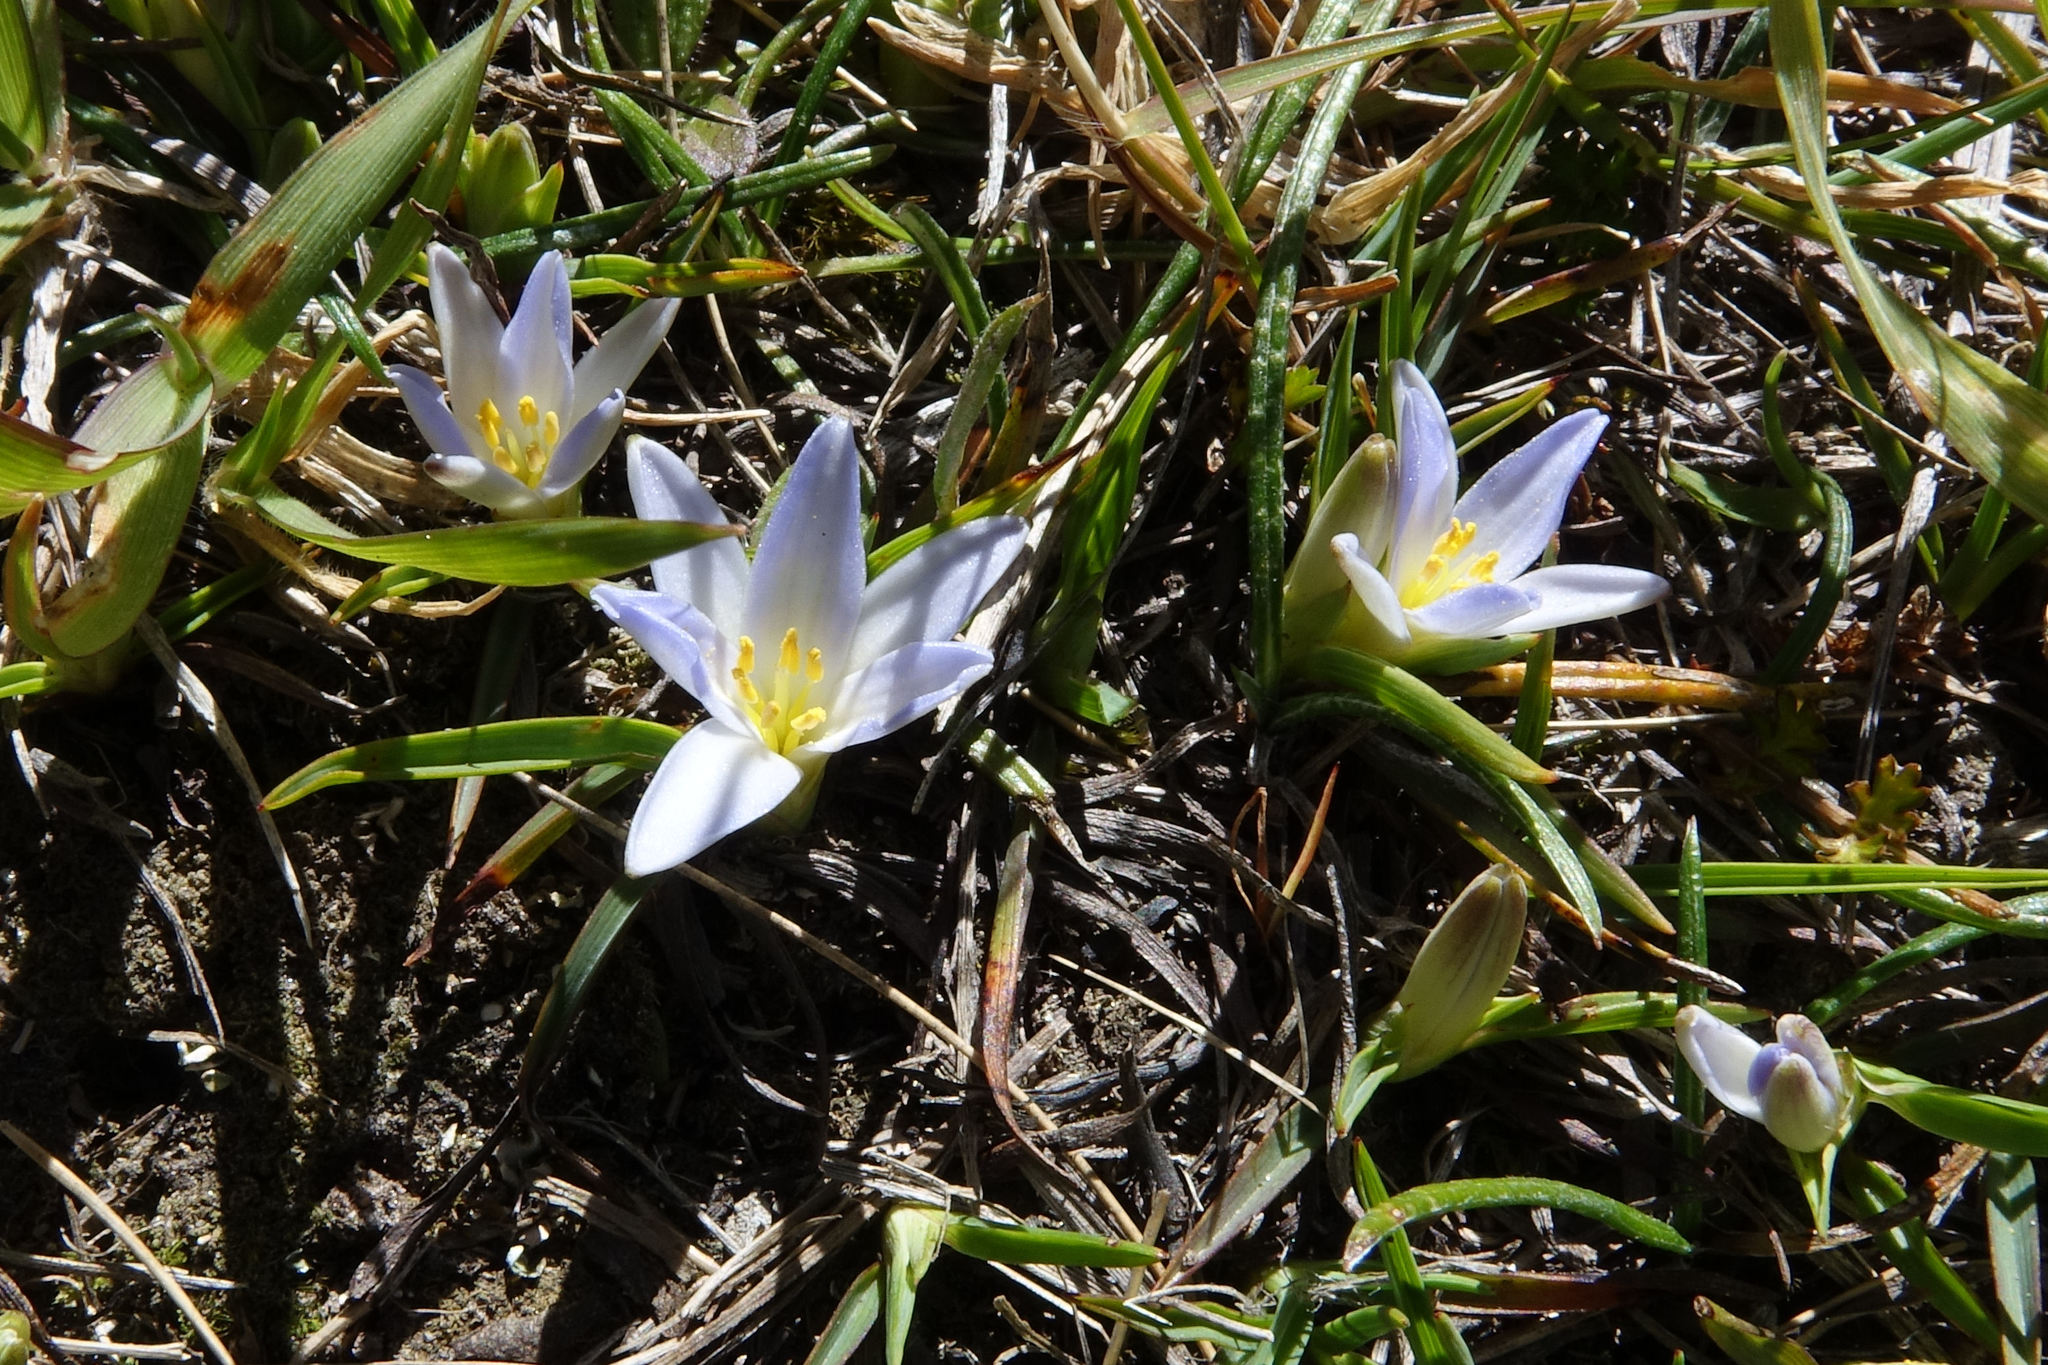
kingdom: Plantae
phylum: Tracheophyta
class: Liliopsida
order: Asparagales
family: Asphodelaceae
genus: Herpolirion
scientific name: Herpolirion novae-zelandiae
